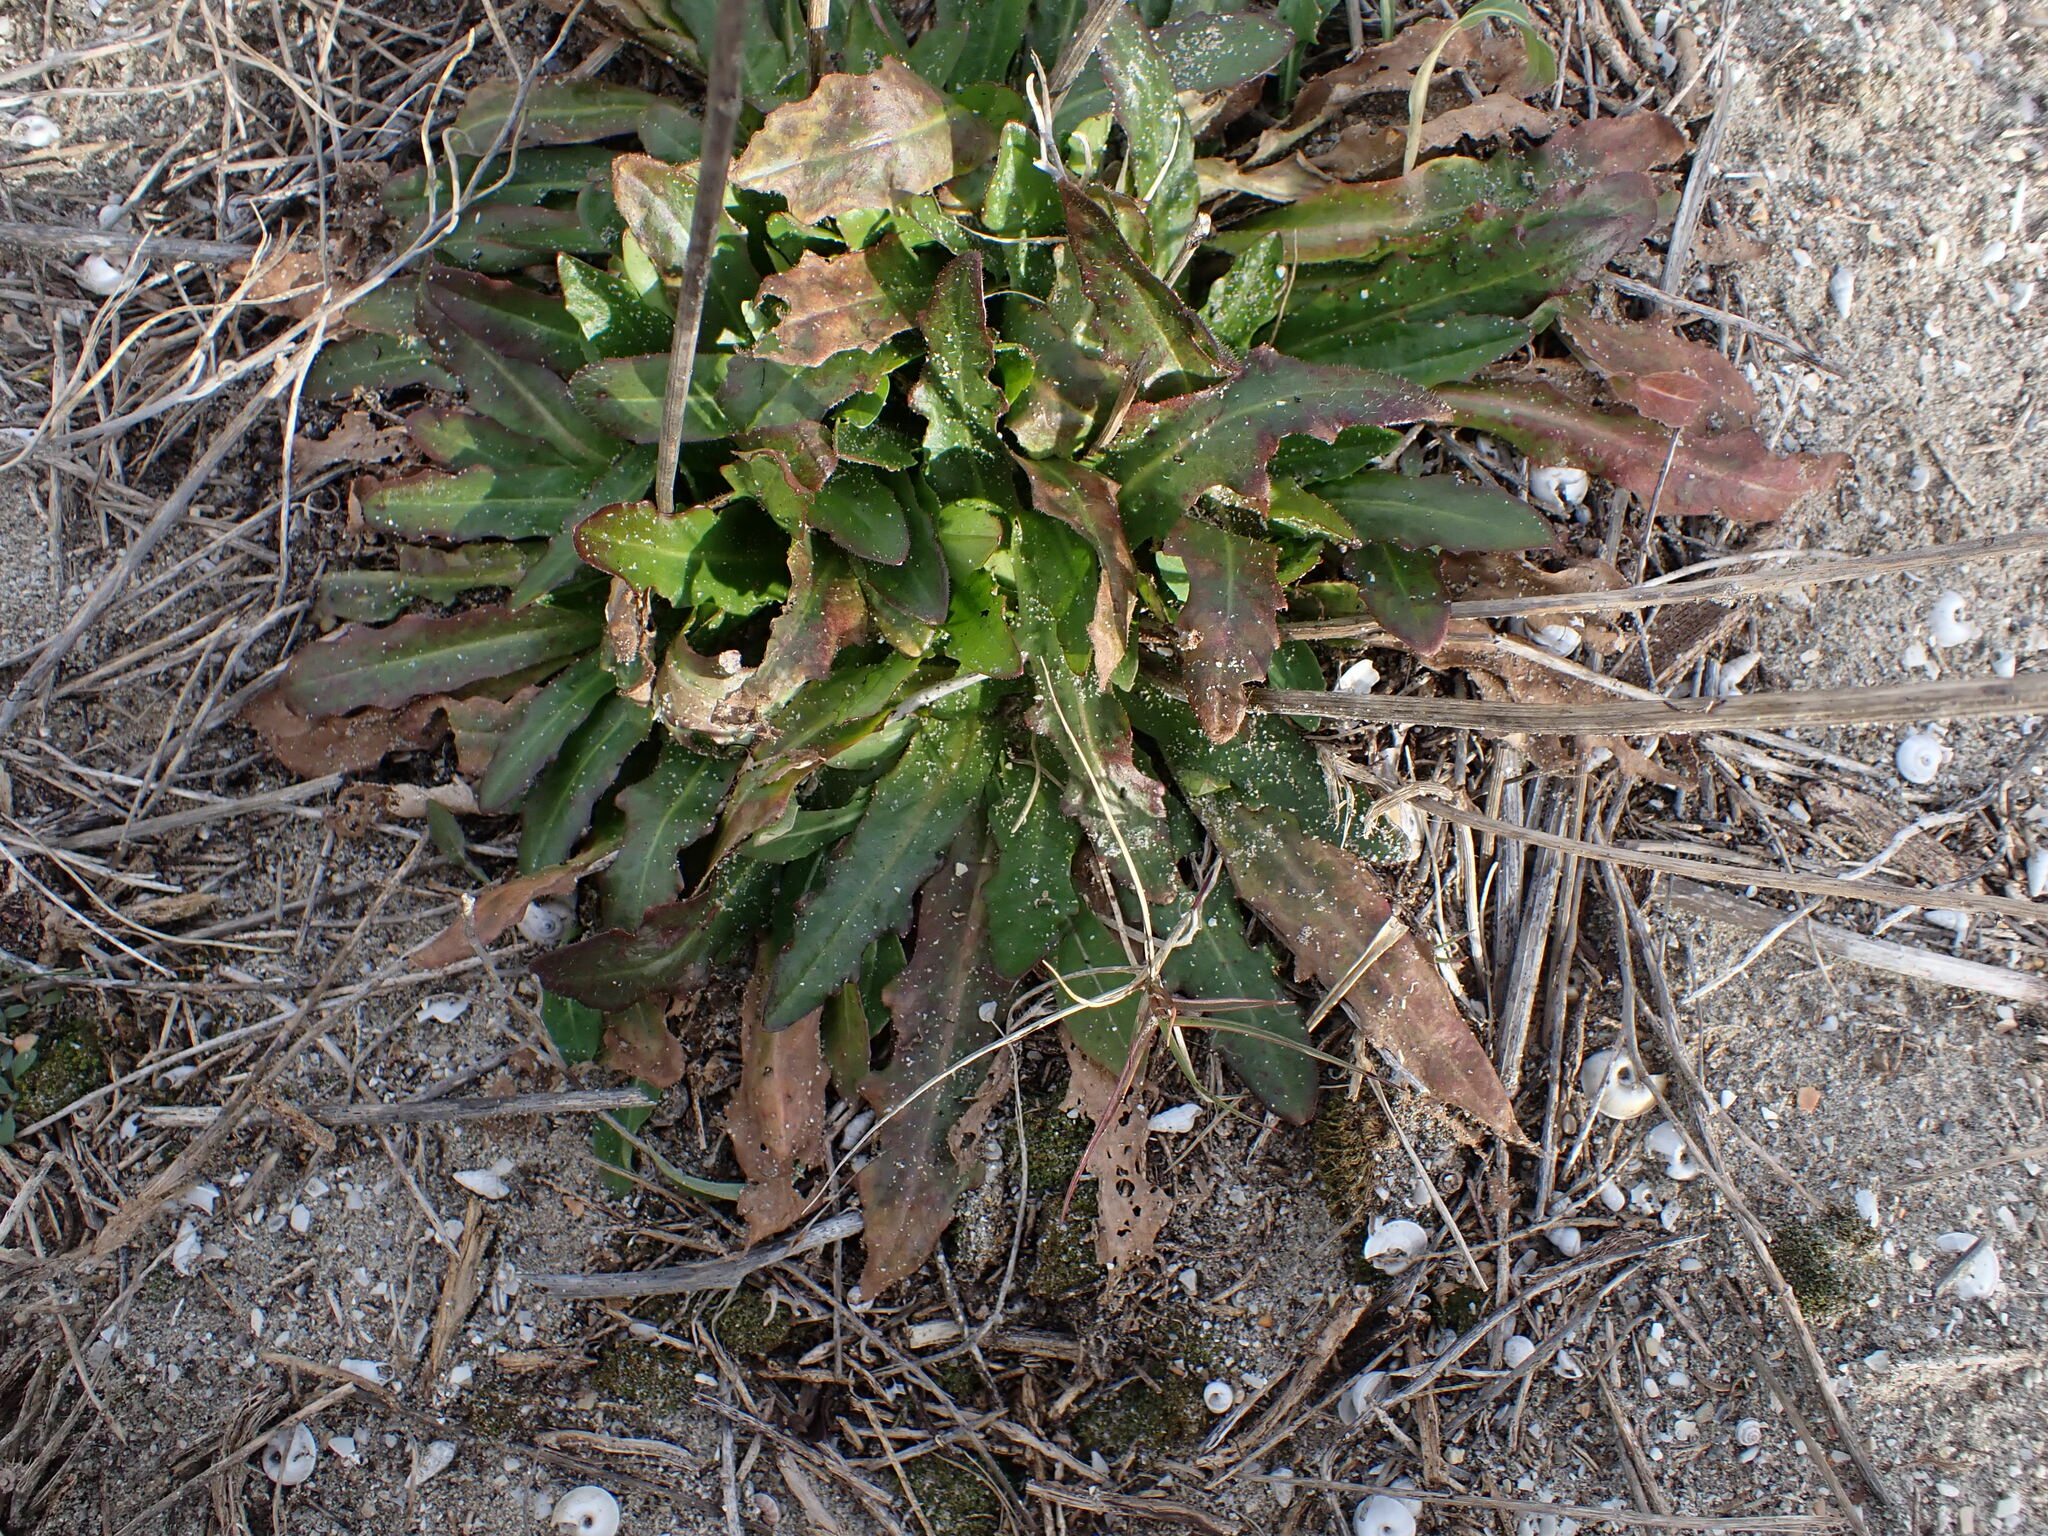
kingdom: Plantae
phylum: Tracheophyta
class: Magnoliopsida
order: Asterales
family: Asteraceae
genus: Hypochaeris
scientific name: Hypochaeris radicata
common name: Flatweed
